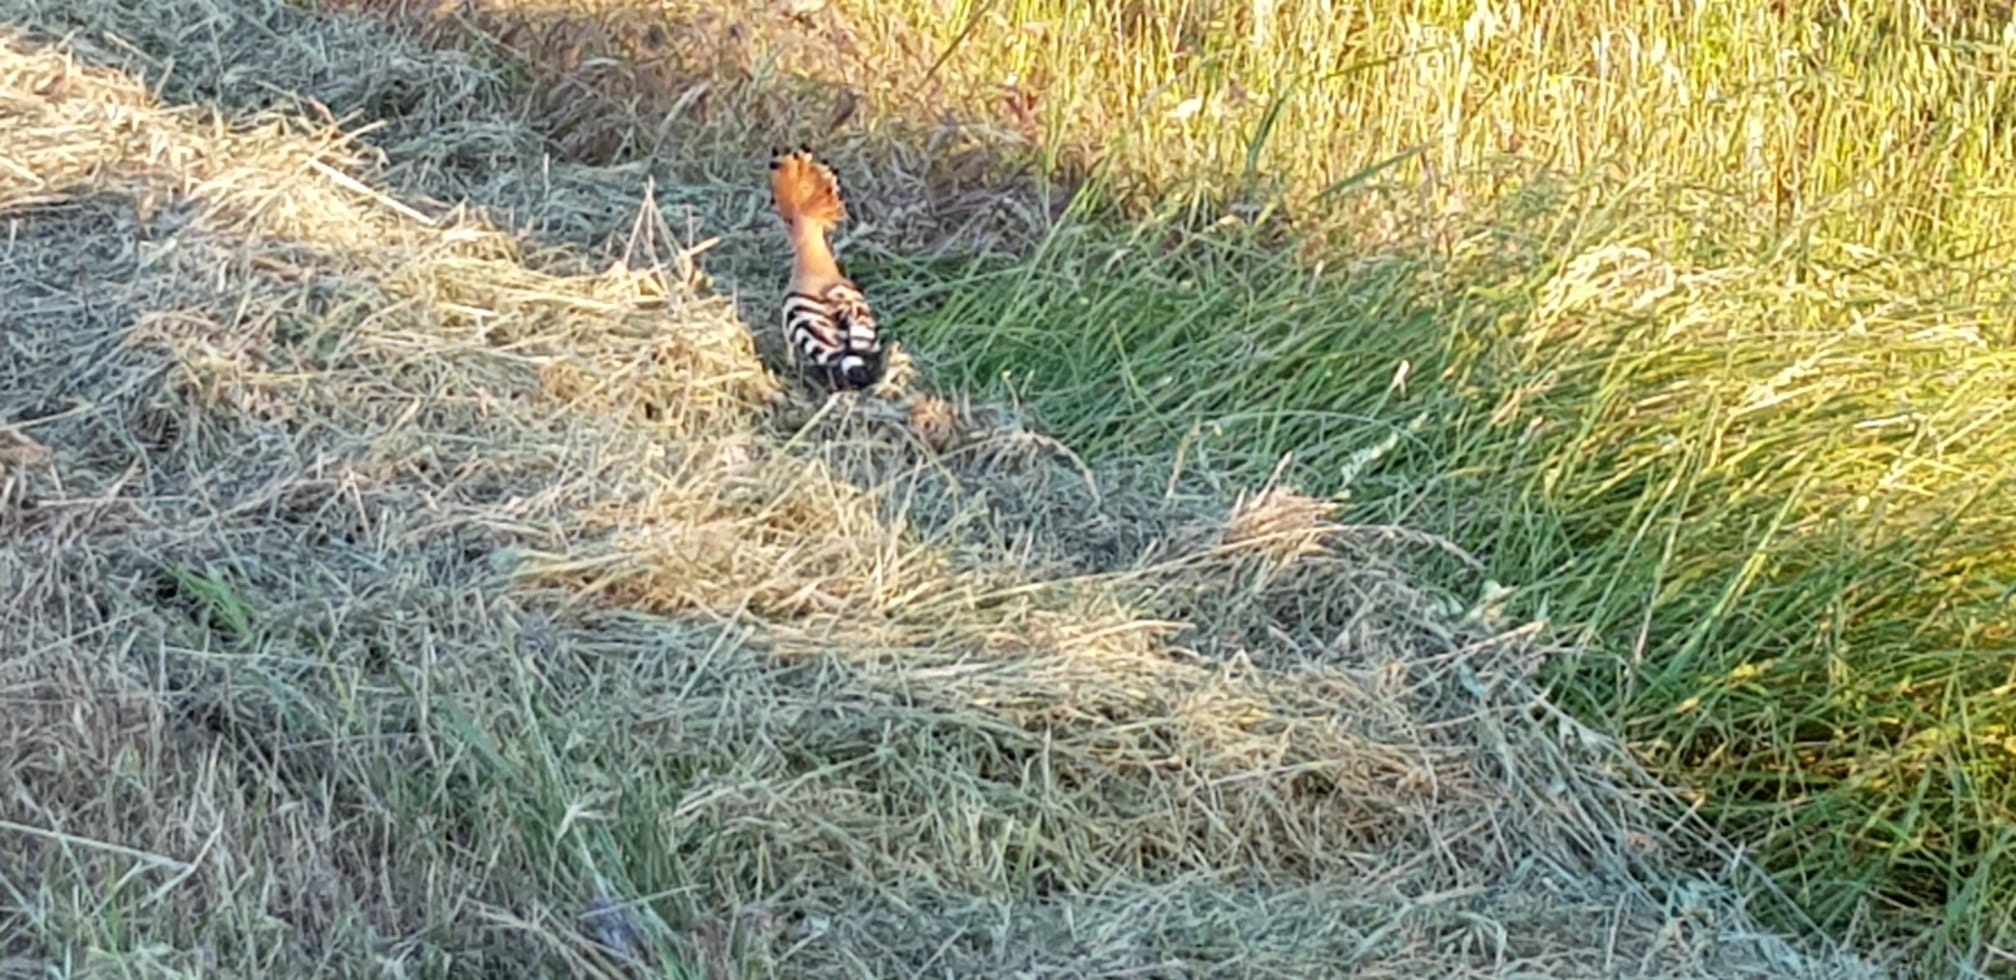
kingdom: Animalia
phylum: Chordata
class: Aves
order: Bucerotiformes
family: Upupidae
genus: Upupa
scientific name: Upupa epops
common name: Eurasian hoopoe
